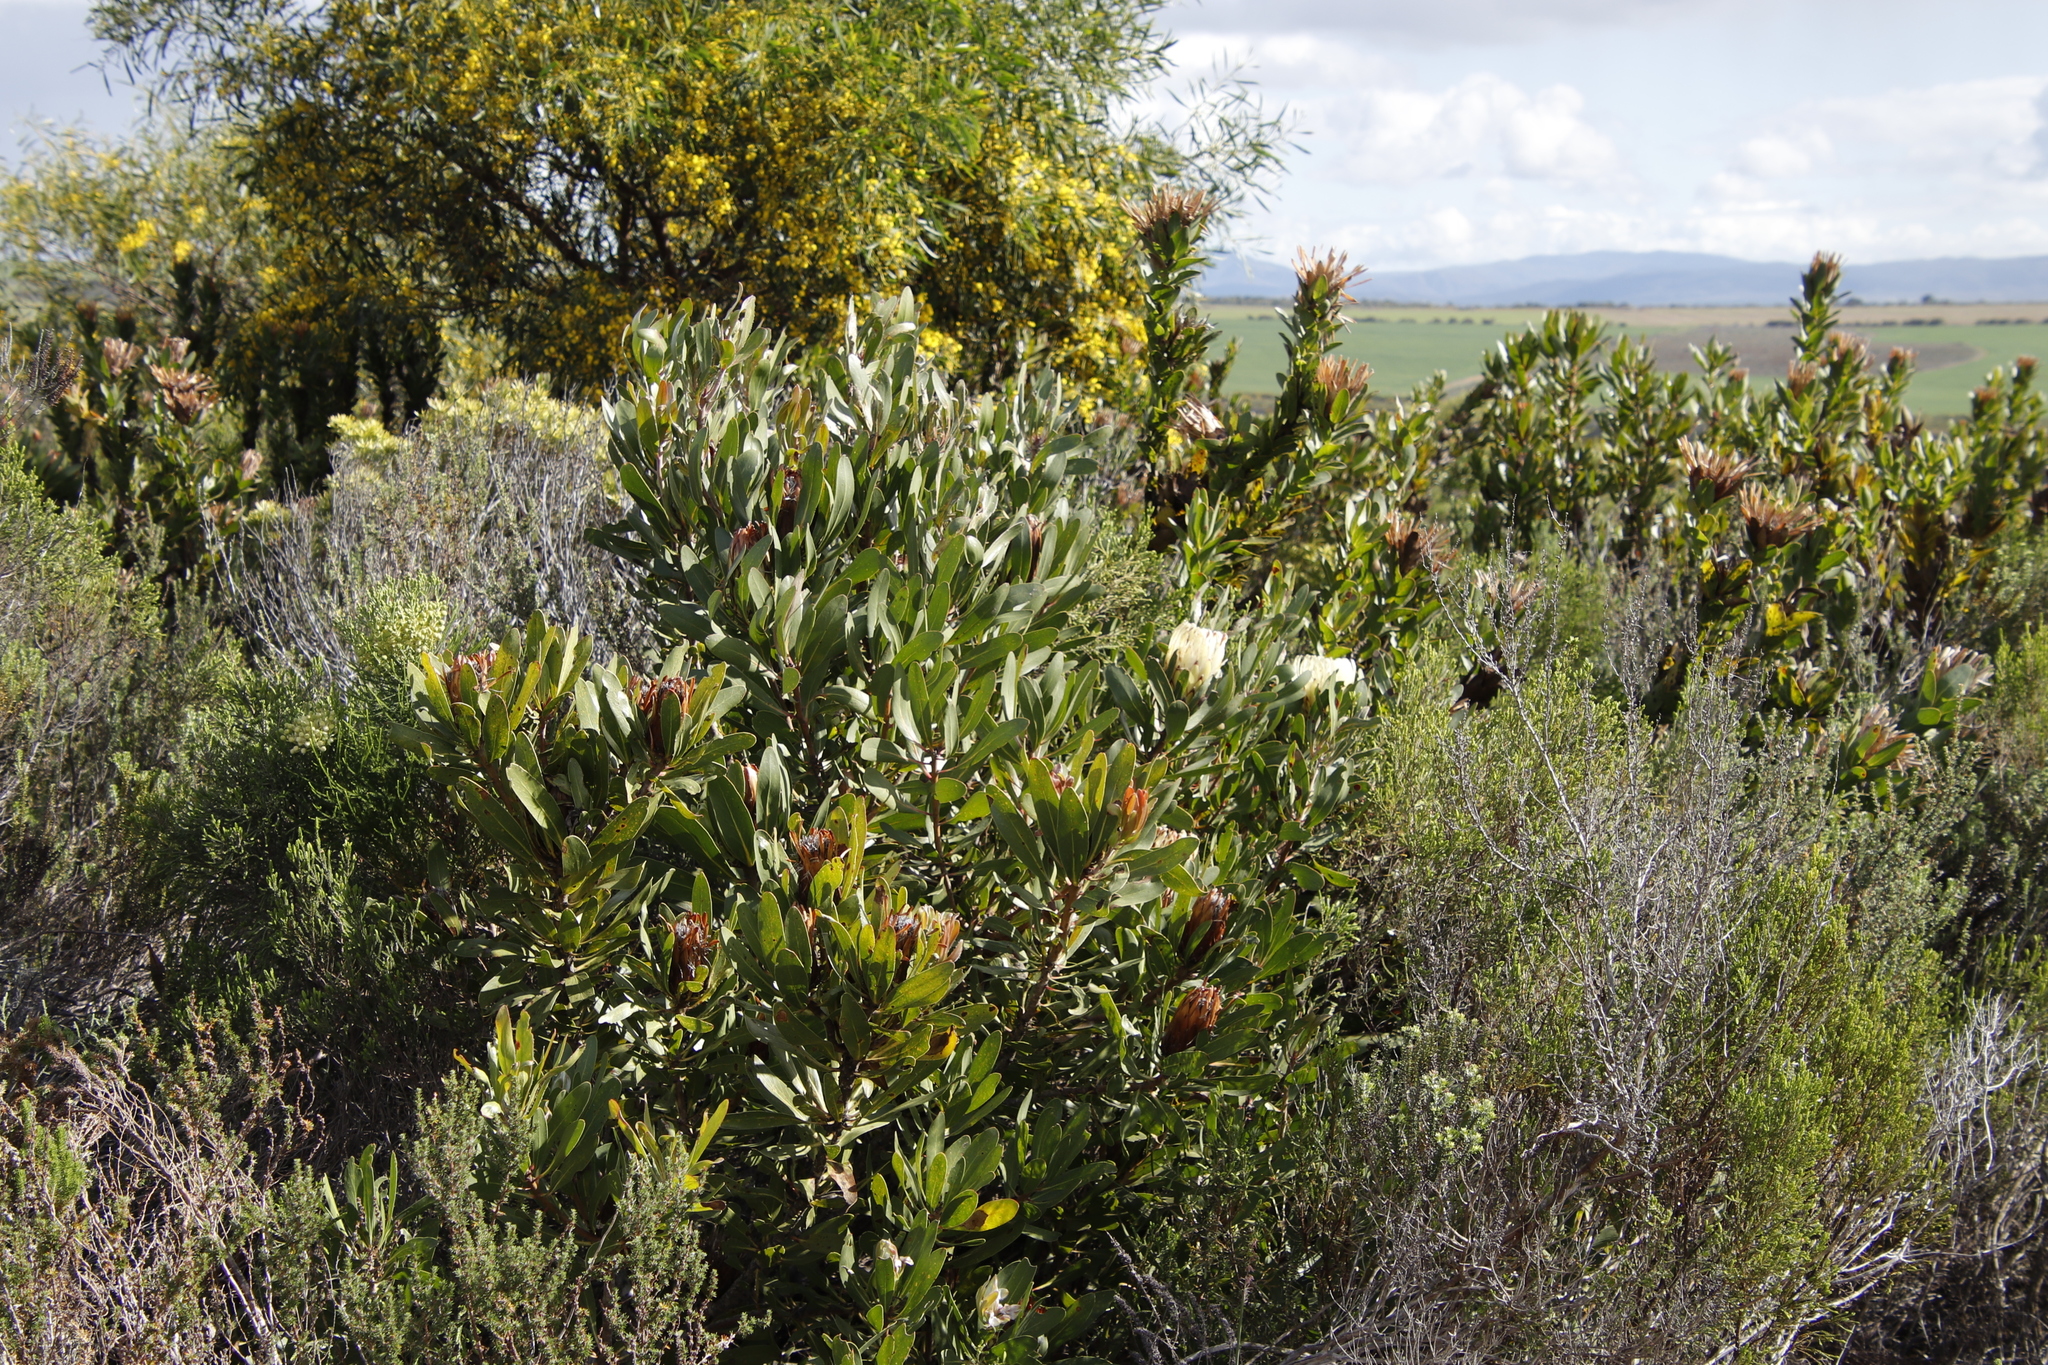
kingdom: Plantae
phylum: Tracheophyta
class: Magnoliopsida
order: Fabales
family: Fabaceae
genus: Acacia
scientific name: Acacia saligna
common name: Orange wattle
